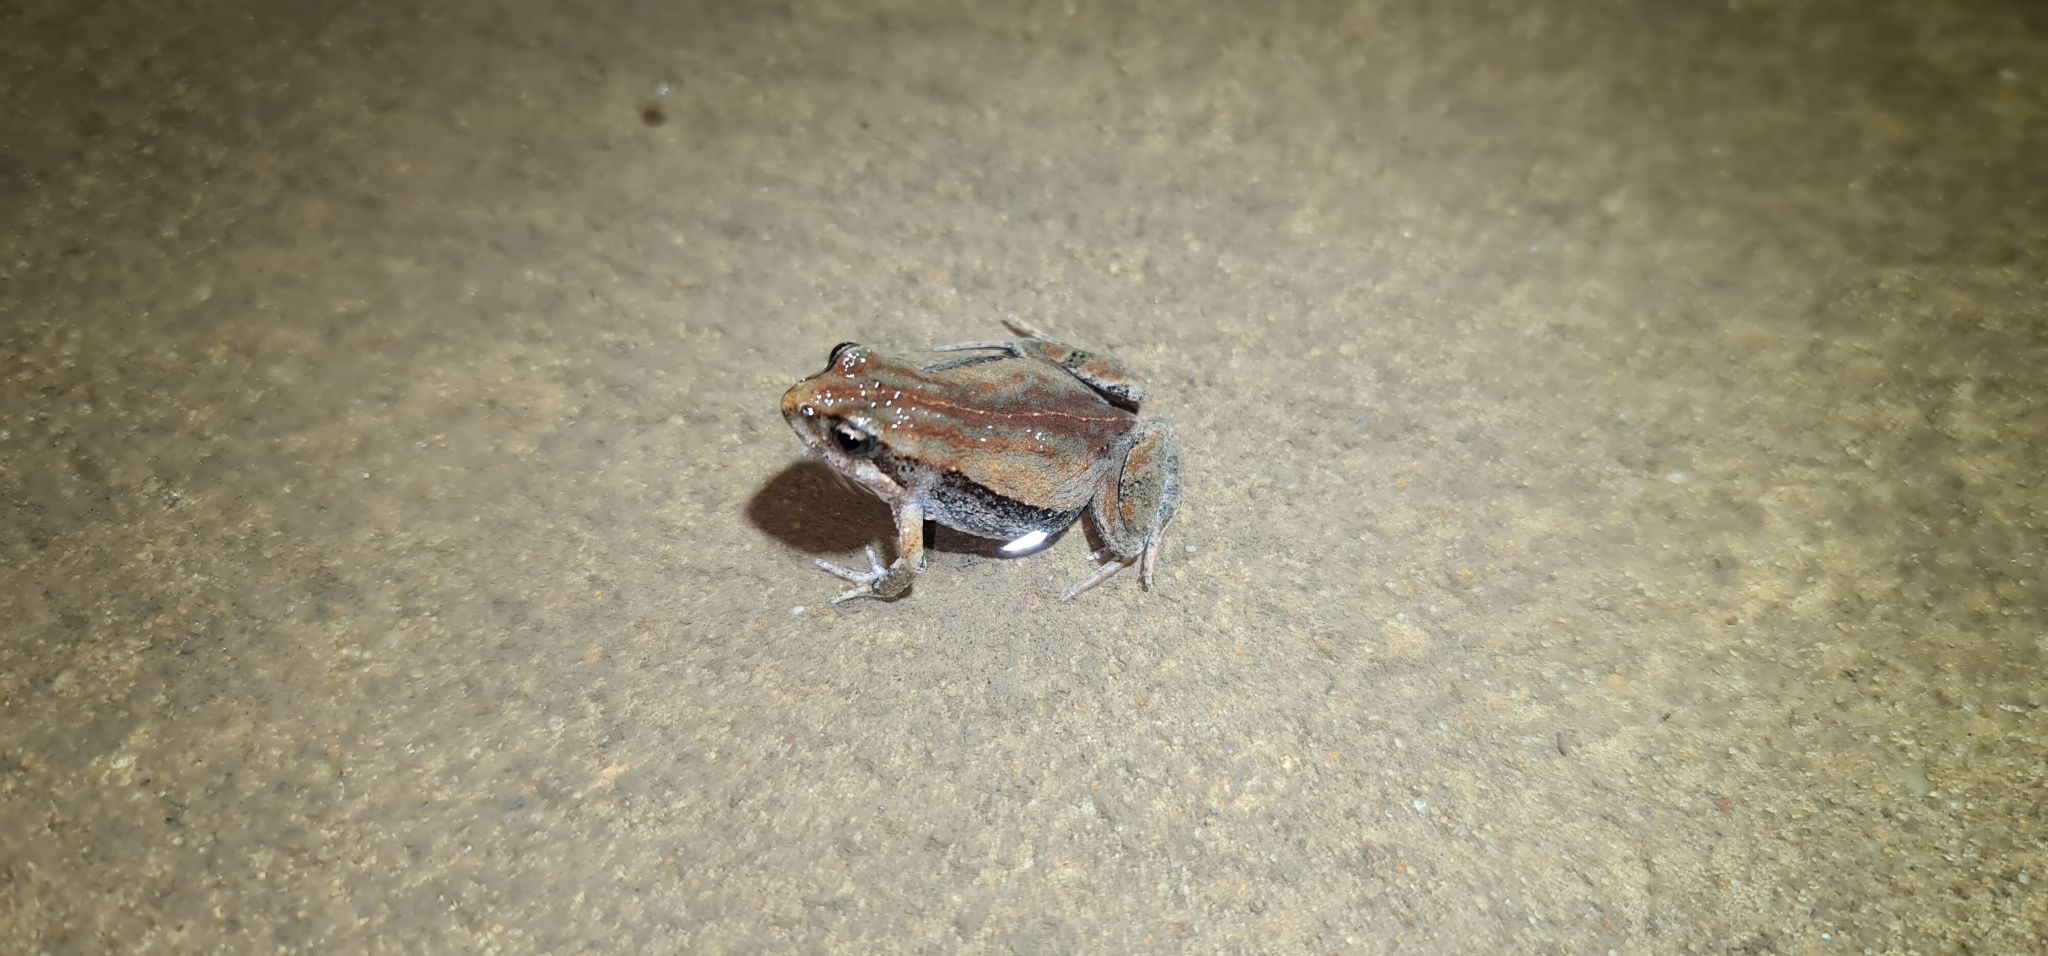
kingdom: Animalia
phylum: Chordata
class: Amphibia
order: Anura
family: Myobatrachidae
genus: Crinia
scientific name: Crinia signifera
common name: Brown froglet
